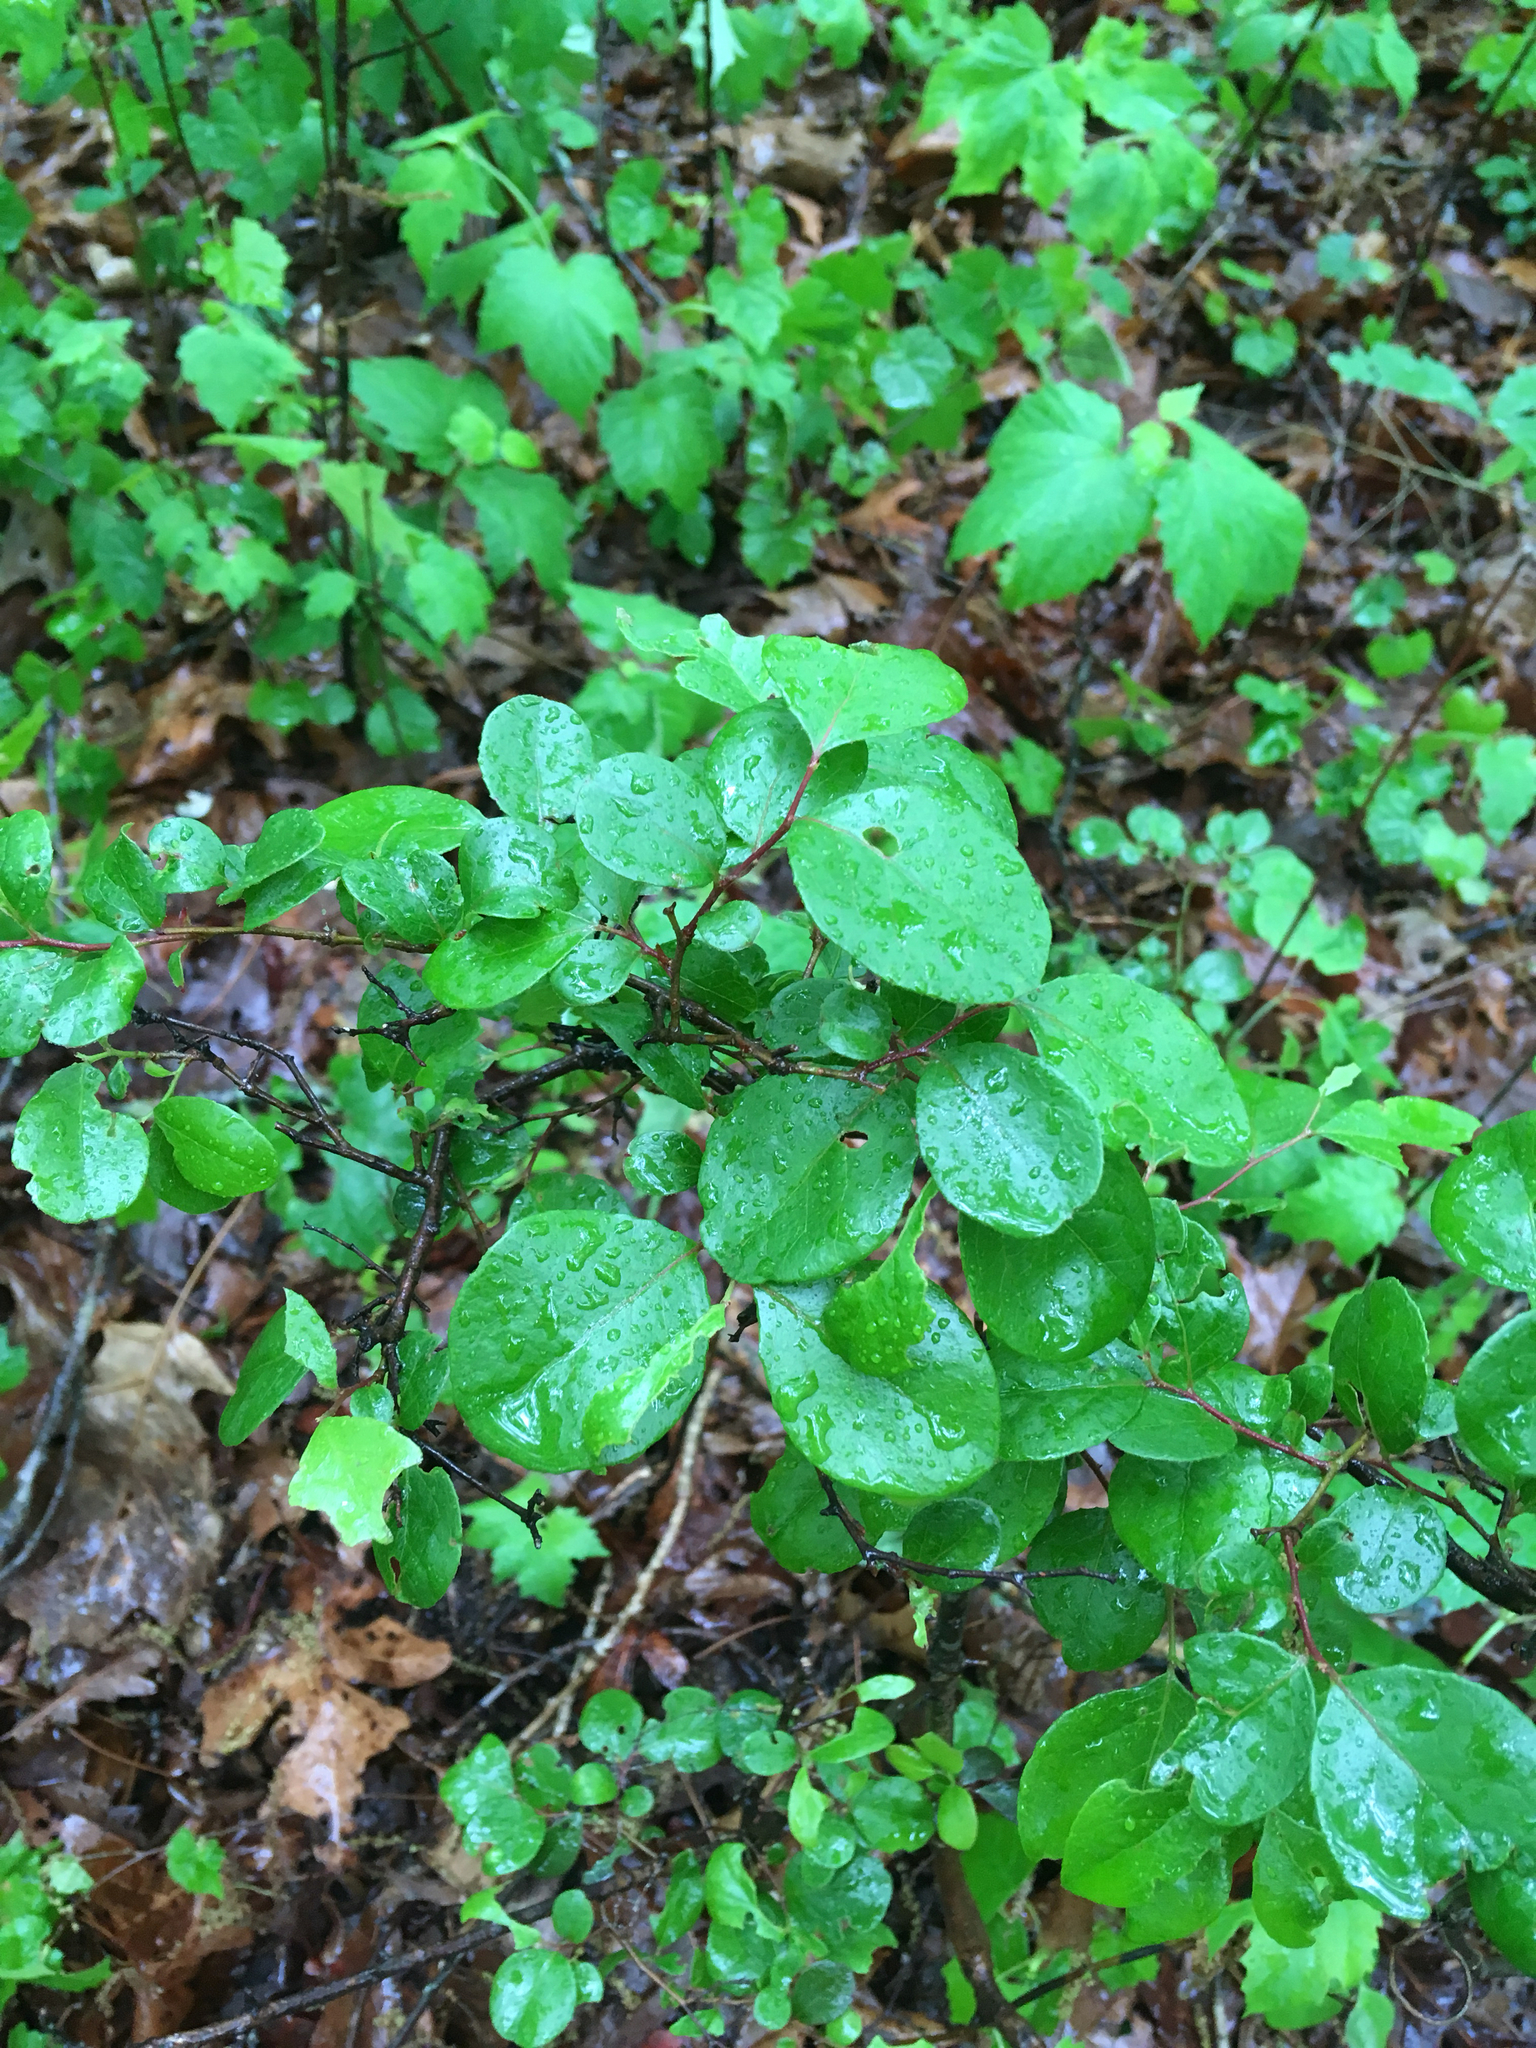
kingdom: Plantae
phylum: Tracheophyta
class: Magnoliopsida
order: Ericales
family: Ericaceae
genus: Vaccinium
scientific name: Vaccinium arboreum
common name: Farkleberry
